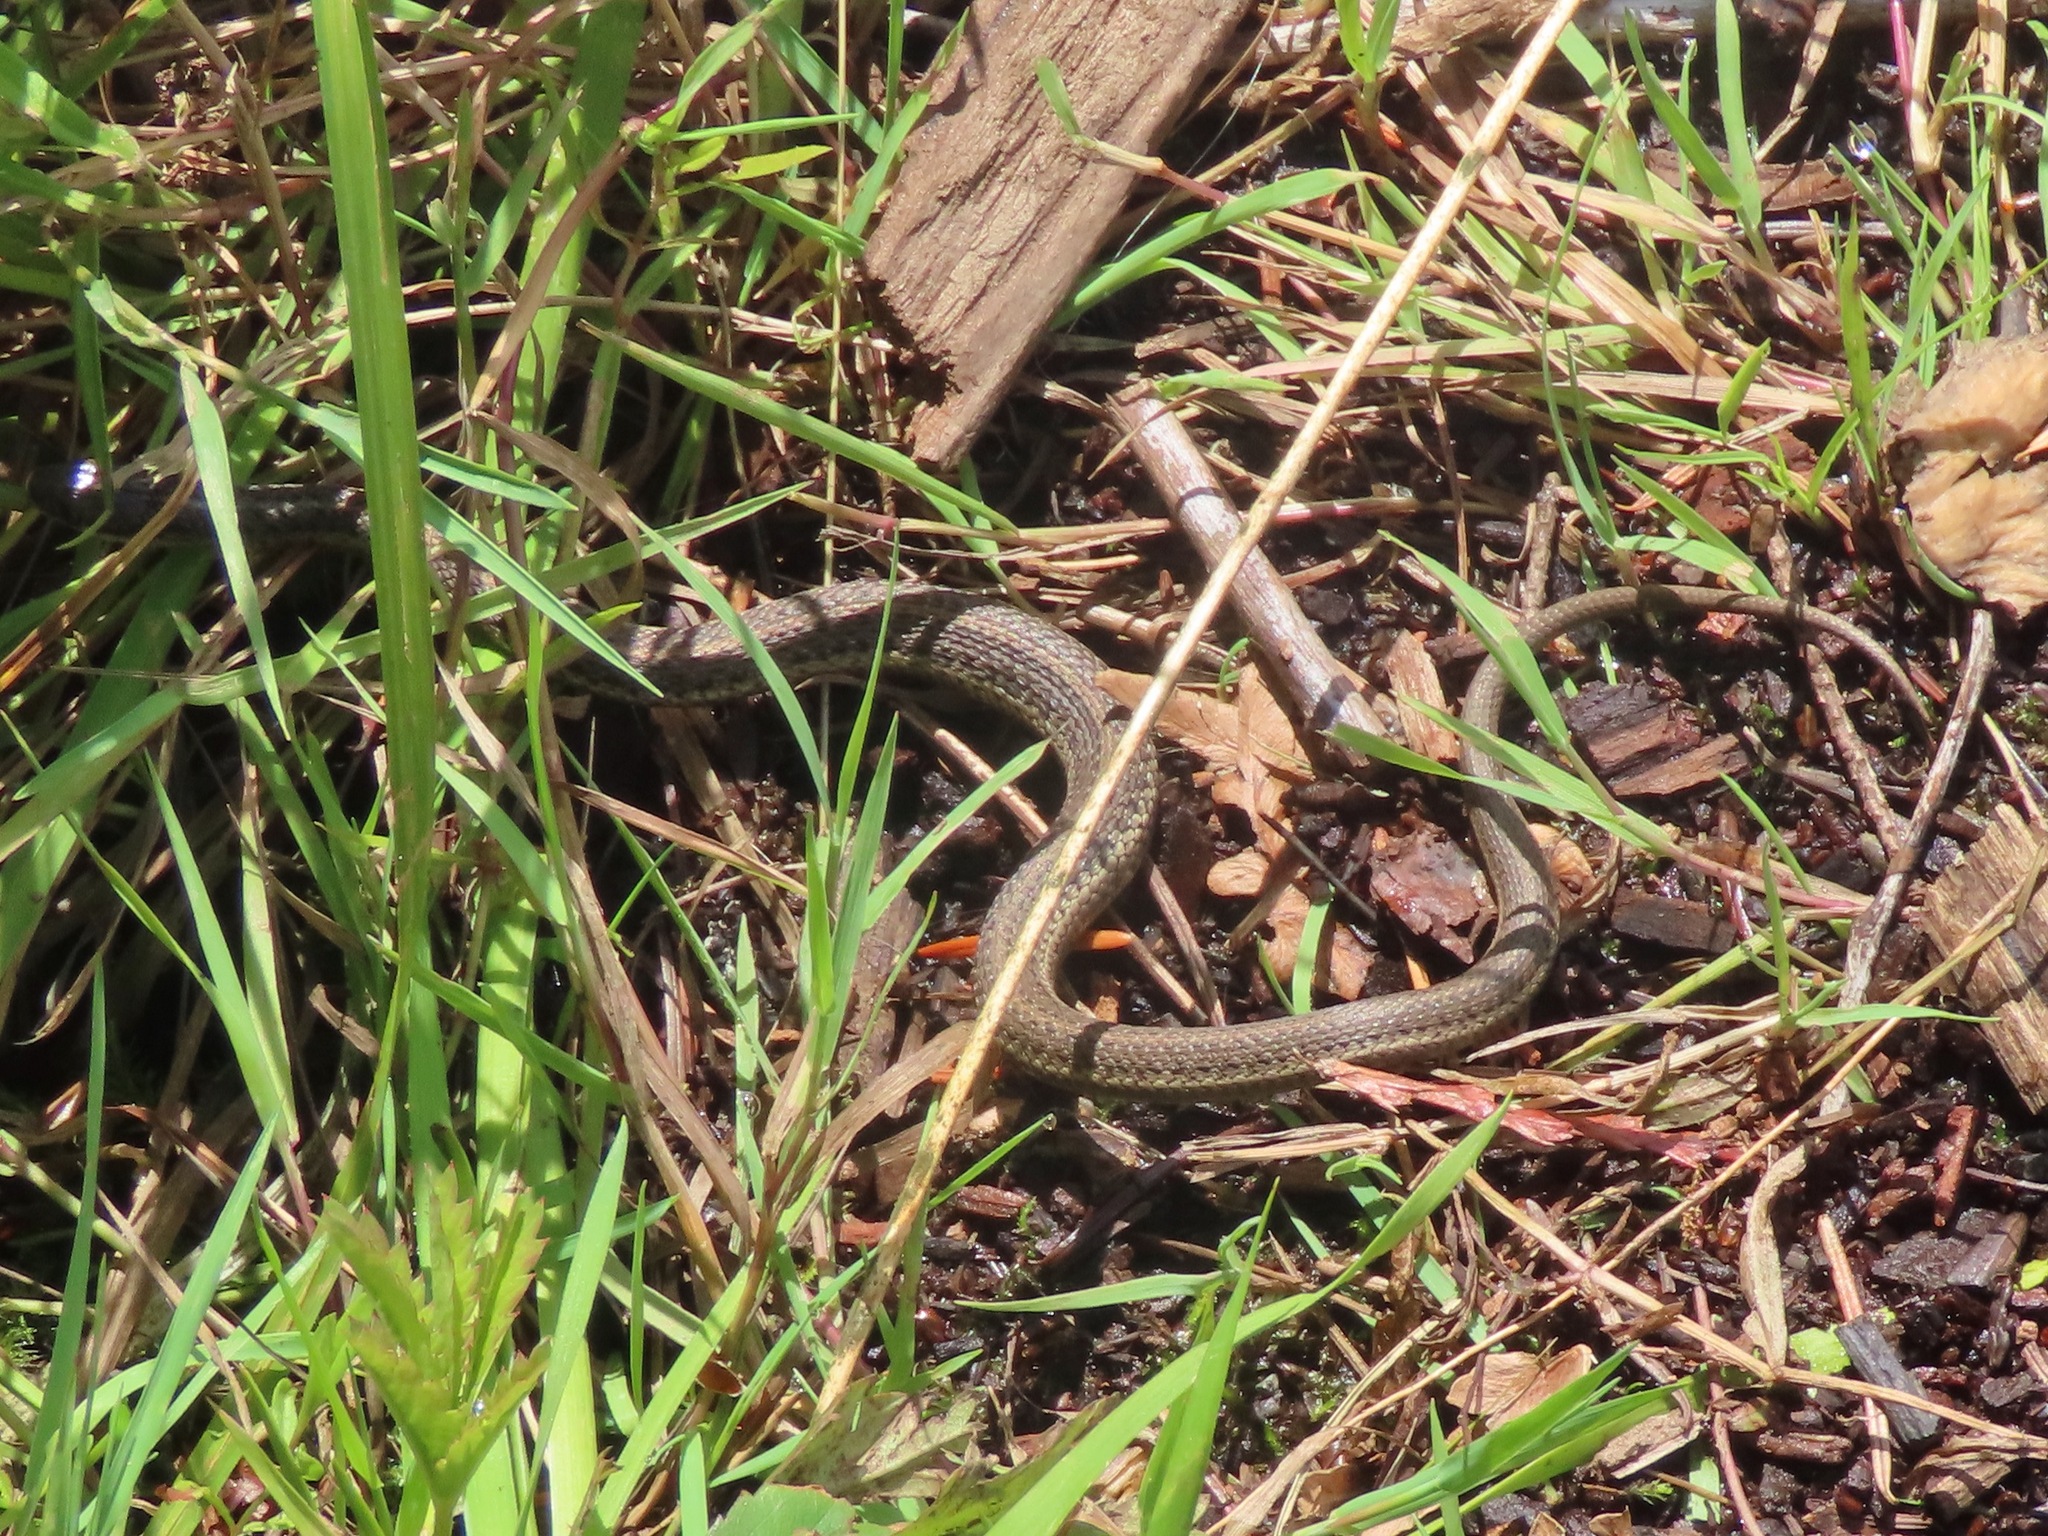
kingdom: Animalia
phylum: Chordata
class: Squamata
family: Colubridae
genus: Thamnophis
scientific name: Thamnophis ordinoides
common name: Northwestern garter snake
